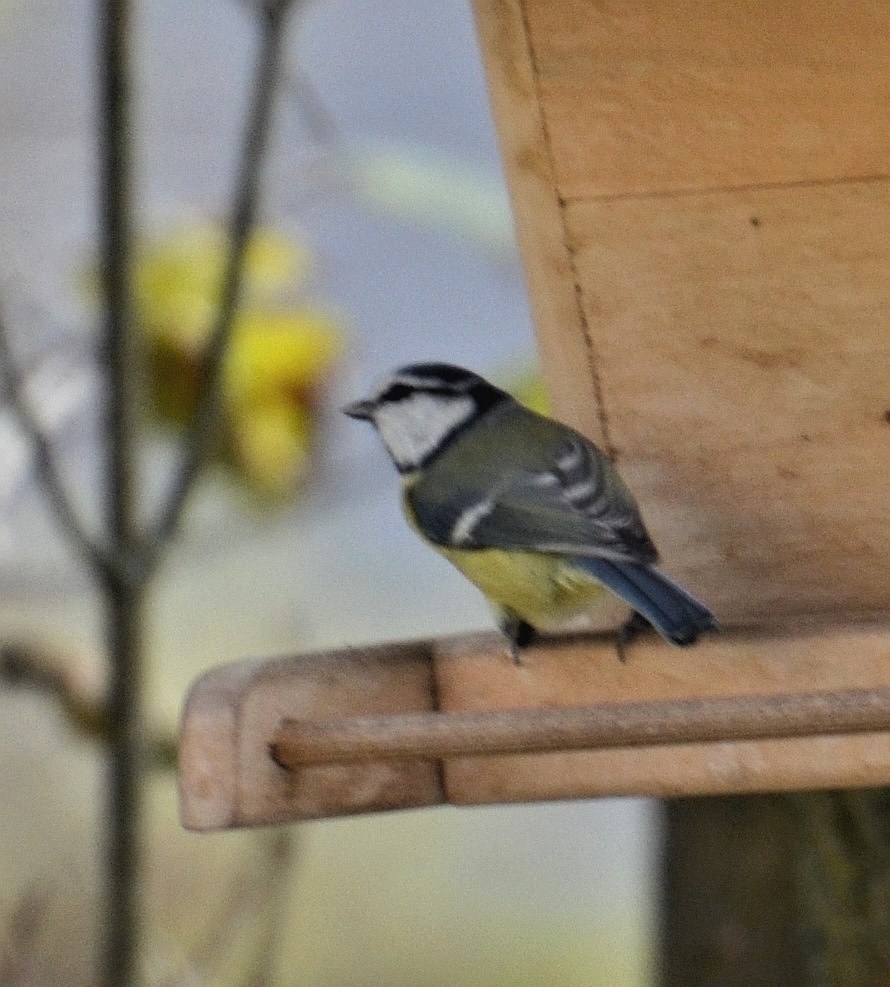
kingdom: Animalia
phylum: Chordata
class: Aves
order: Passeriformes
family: Paridae
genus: Cyanistes
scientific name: Cyanistes caeruleus
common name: Eurasian blue tit
